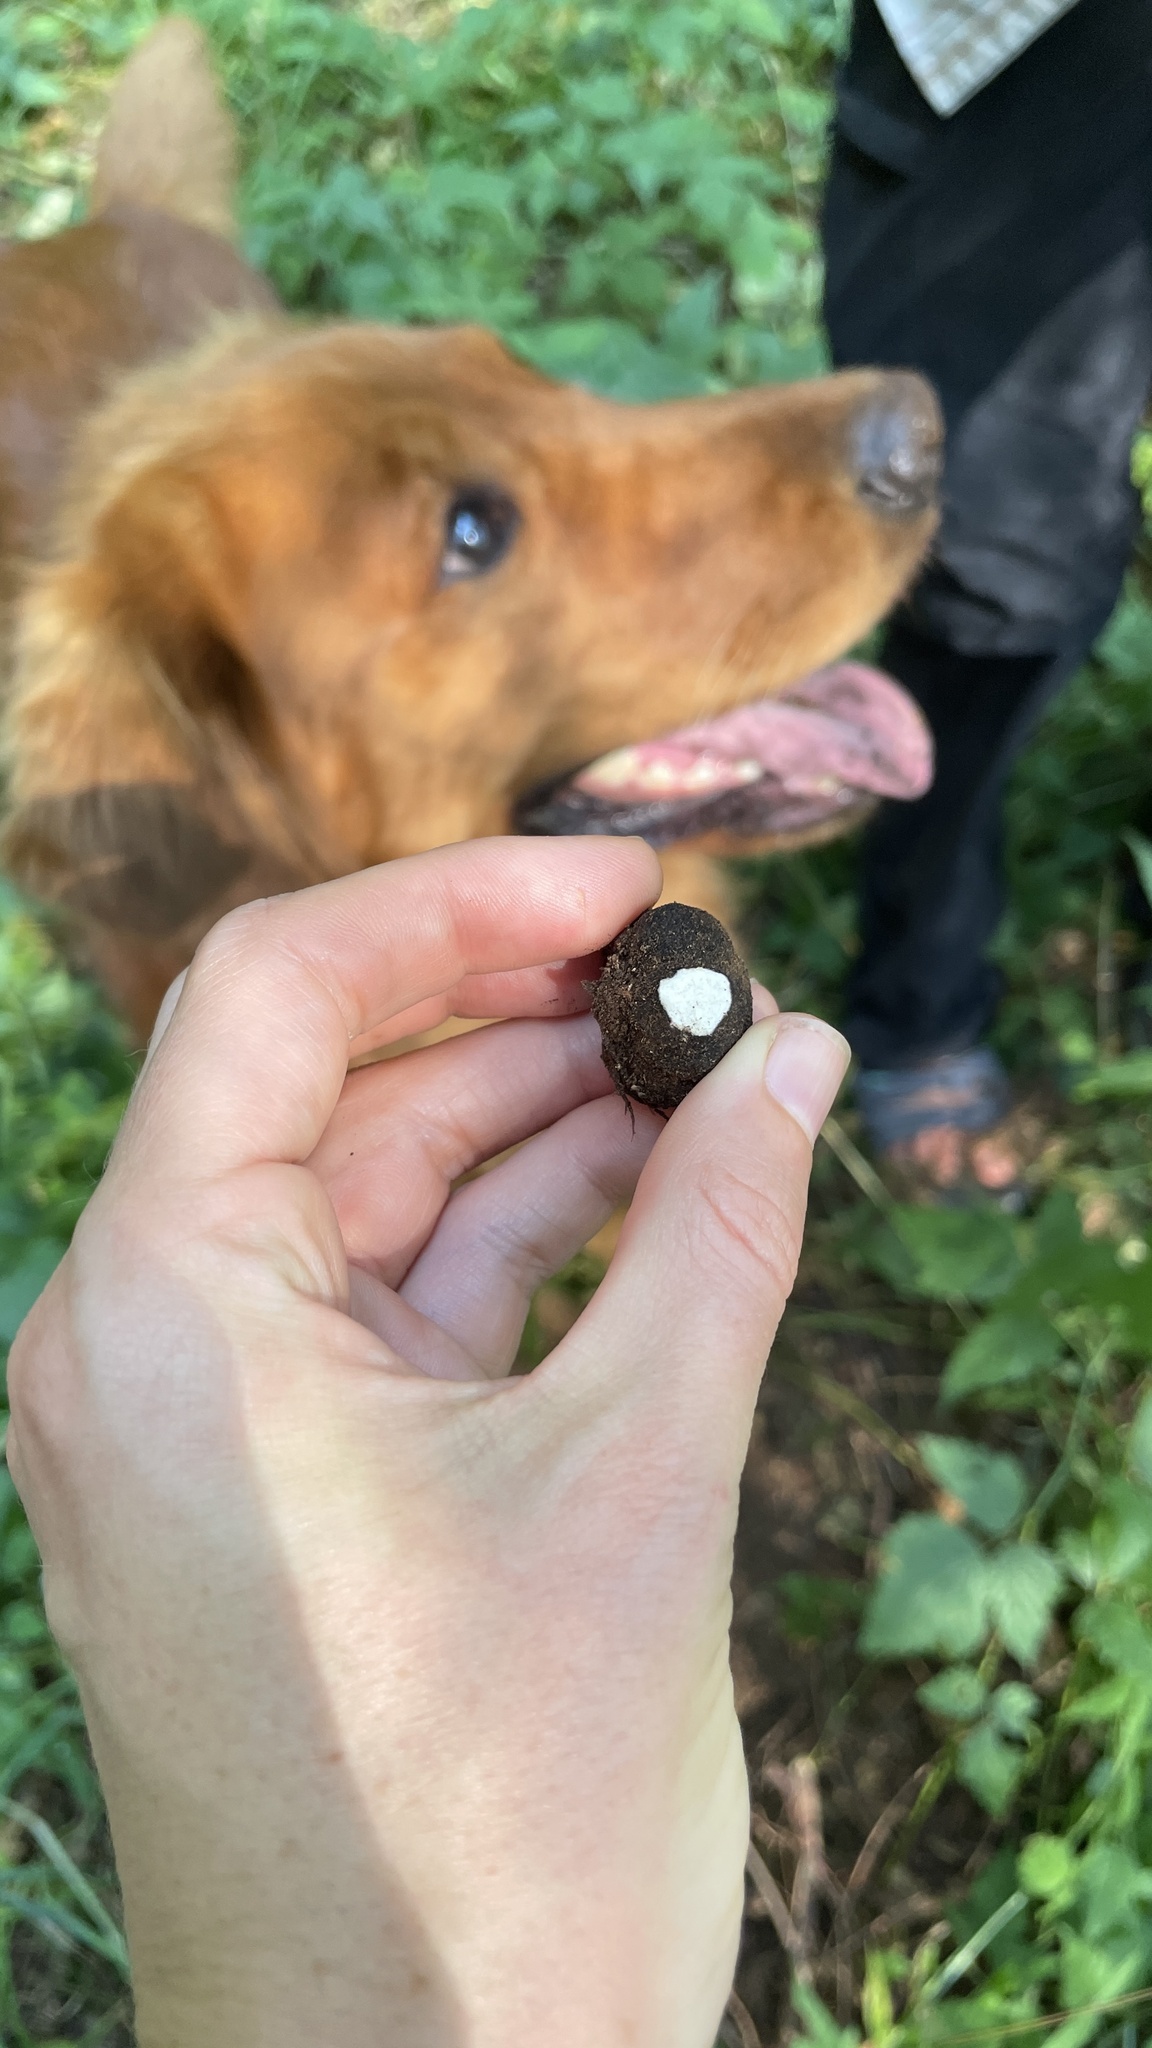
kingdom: Fungi
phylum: Ascomycota
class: Pezizomycetes
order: Pezizales
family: Morchellaceae
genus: Leucangium
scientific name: Leucangium carthusianum
